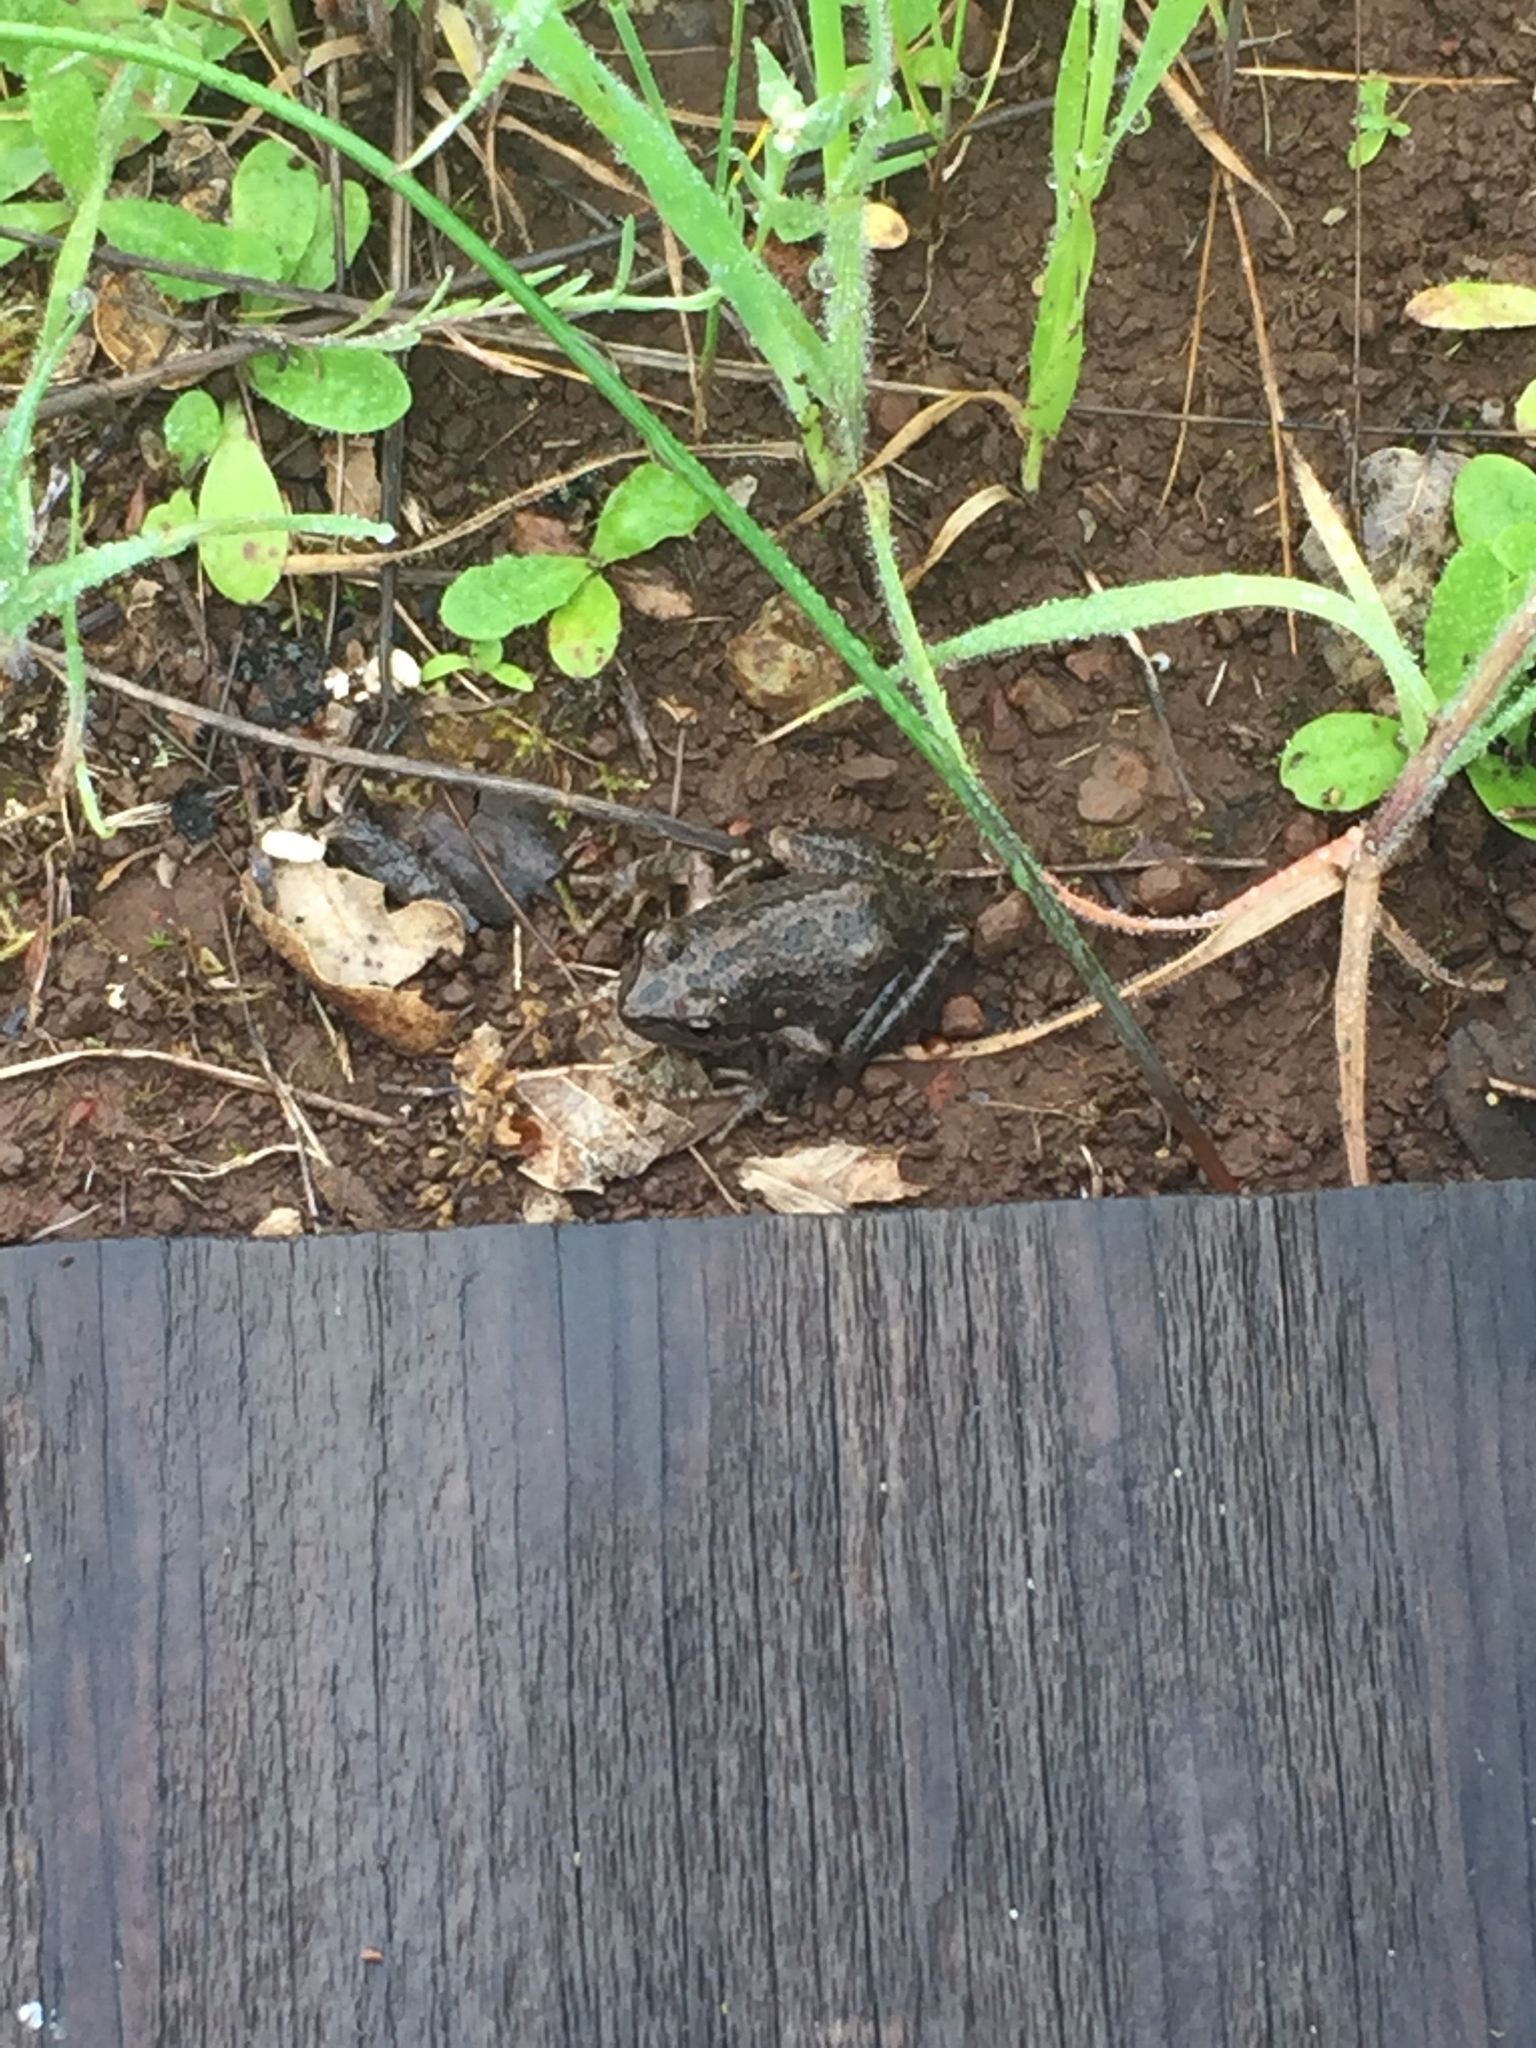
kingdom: Animalia
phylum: Chordata
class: Amphibia
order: Anura
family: Hylidae
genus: Pseudacris
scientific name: Pseudacris regilla
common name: Pacific chorus frog
